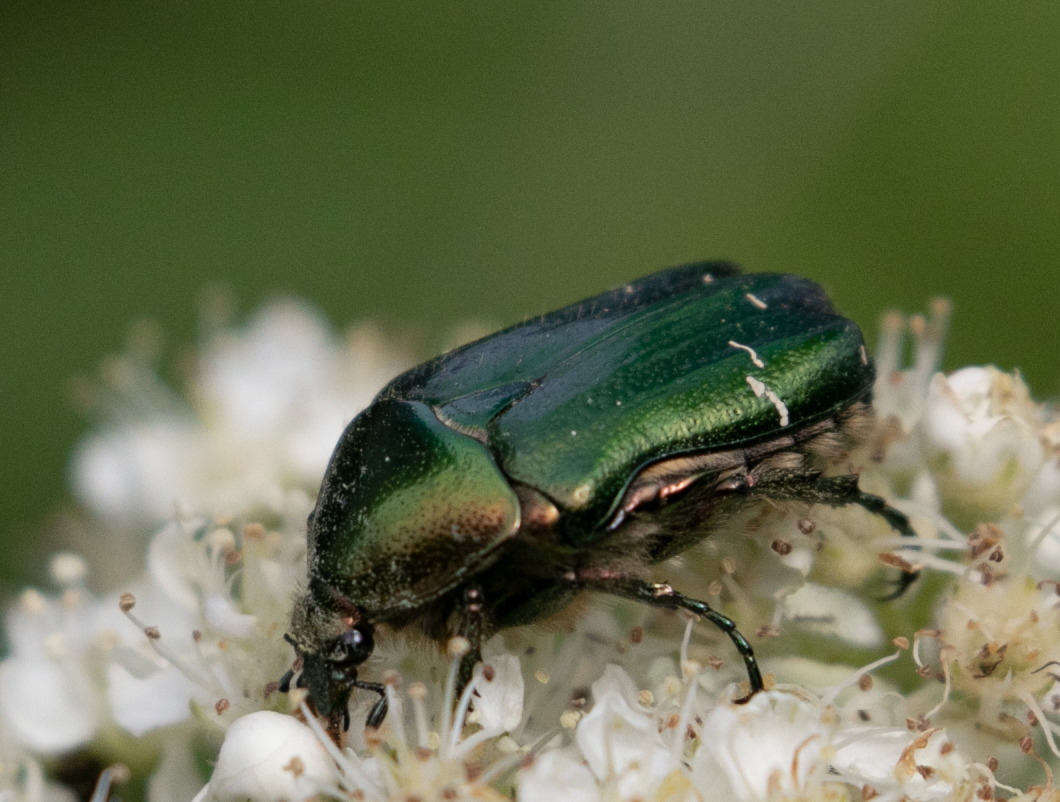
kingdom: Animalia
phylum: Arthropoda
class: Insecta
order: Coleoptera
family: Scarabaeidae
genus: Cetonia
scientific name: Cetonia aurata
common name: Rose chafer
